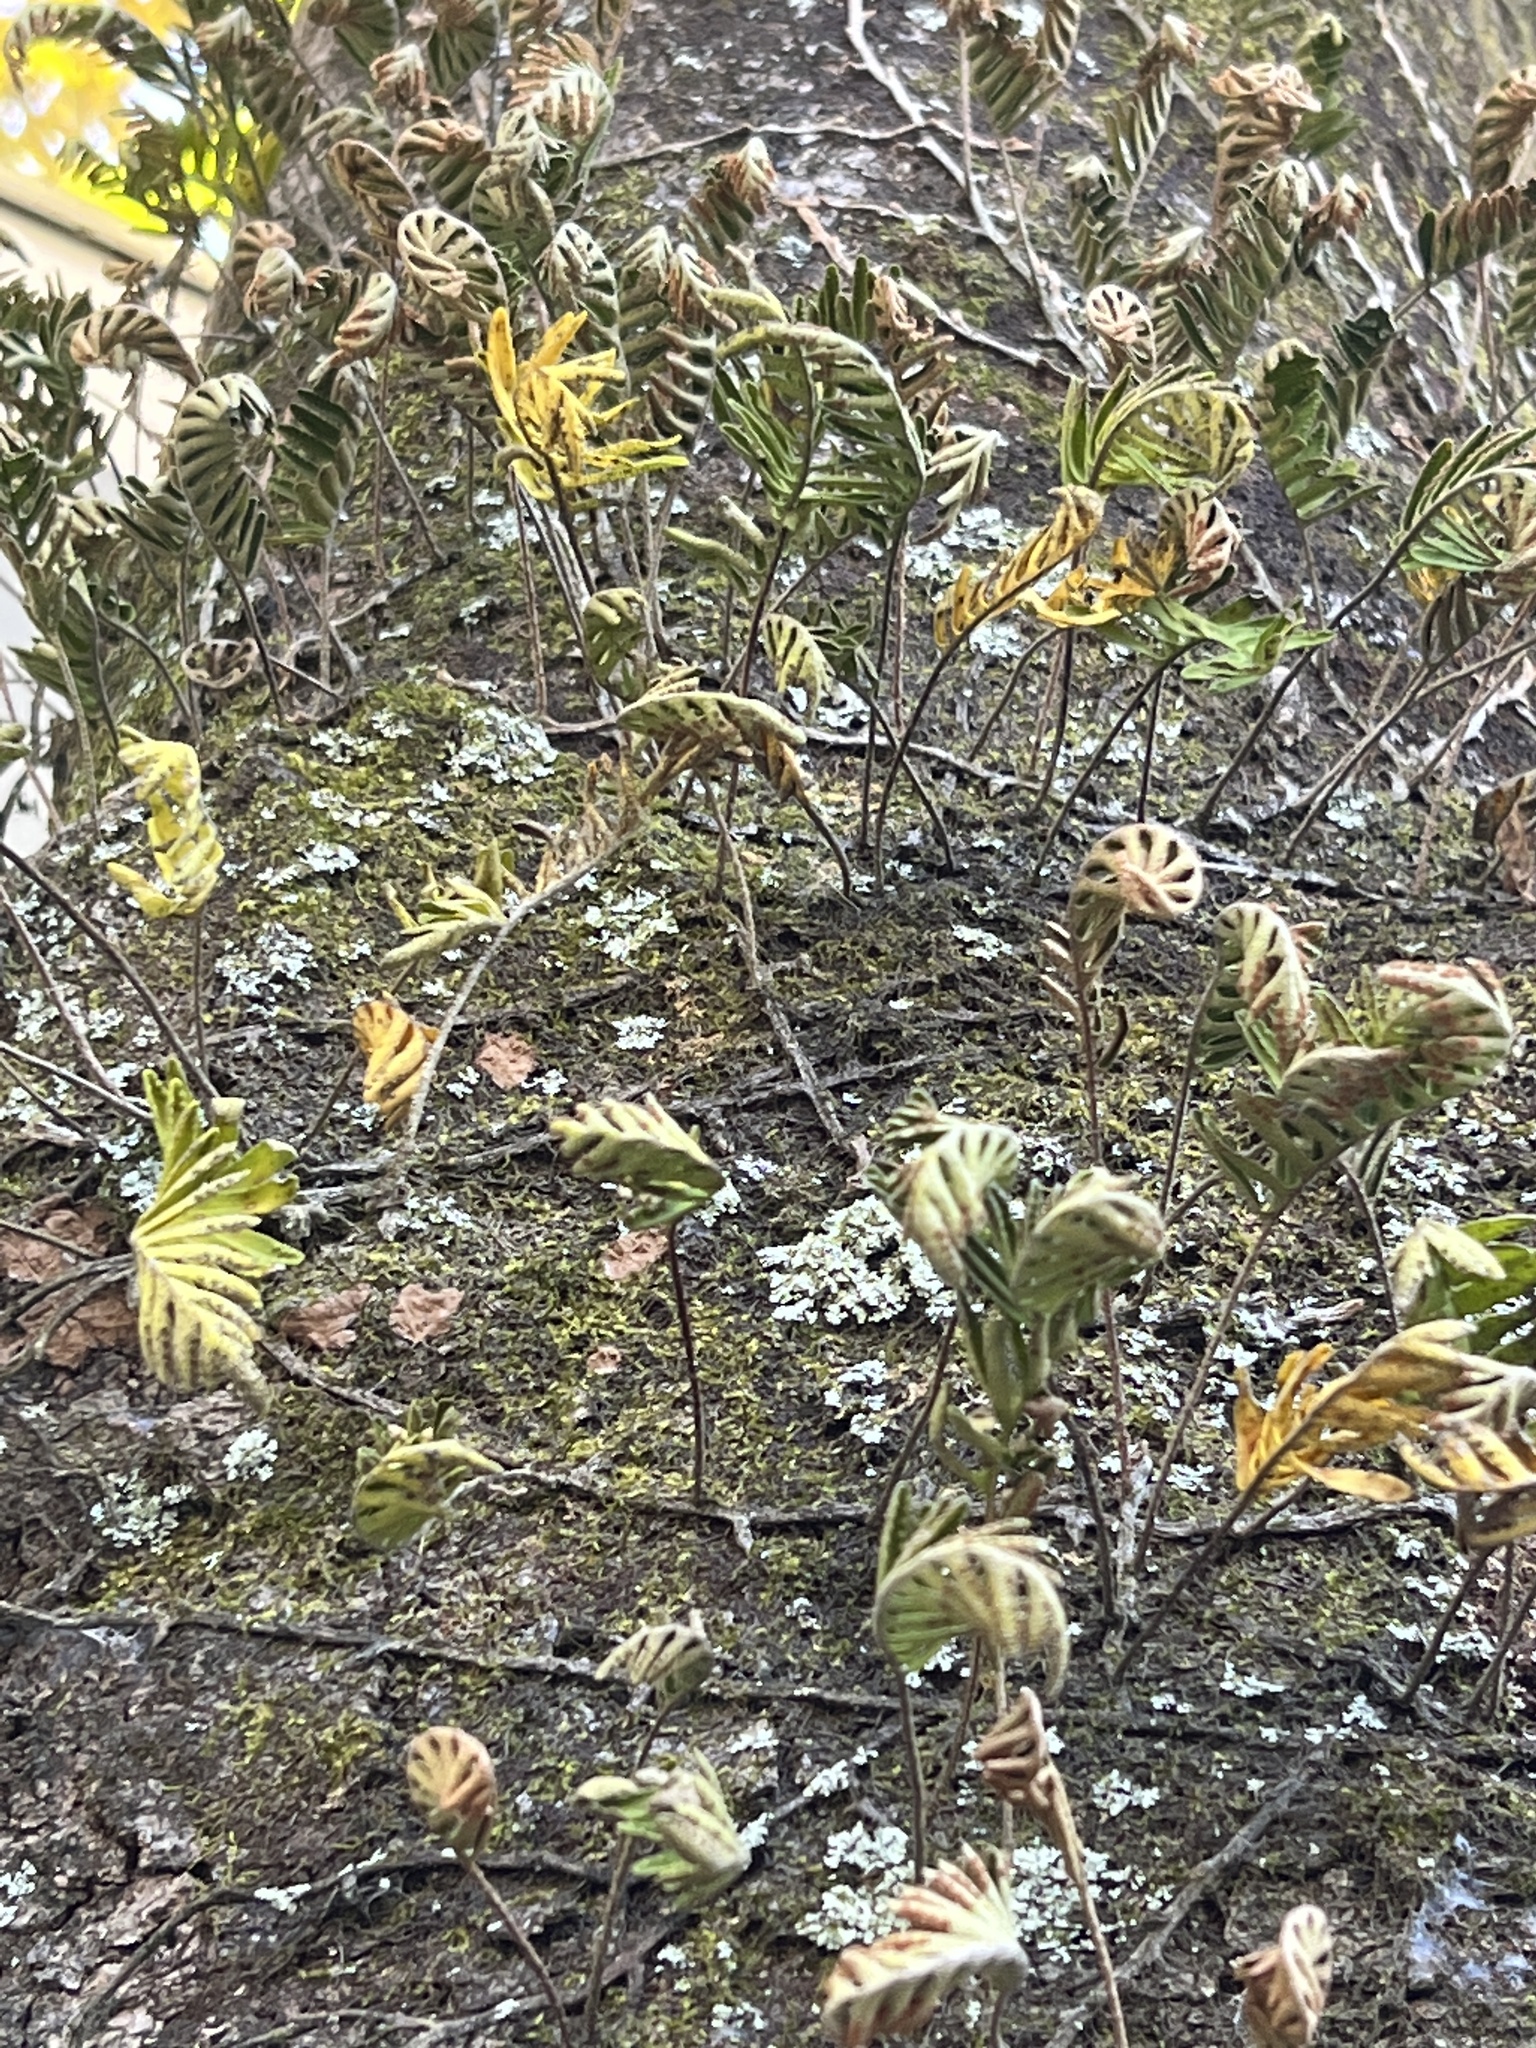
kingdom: Plantae
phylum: Tracheophyta
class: Polypodiopsida
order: Polypodiales
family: Polypodiaceae
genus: Pleopeltis
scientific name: Pleopeltis michauxiana
